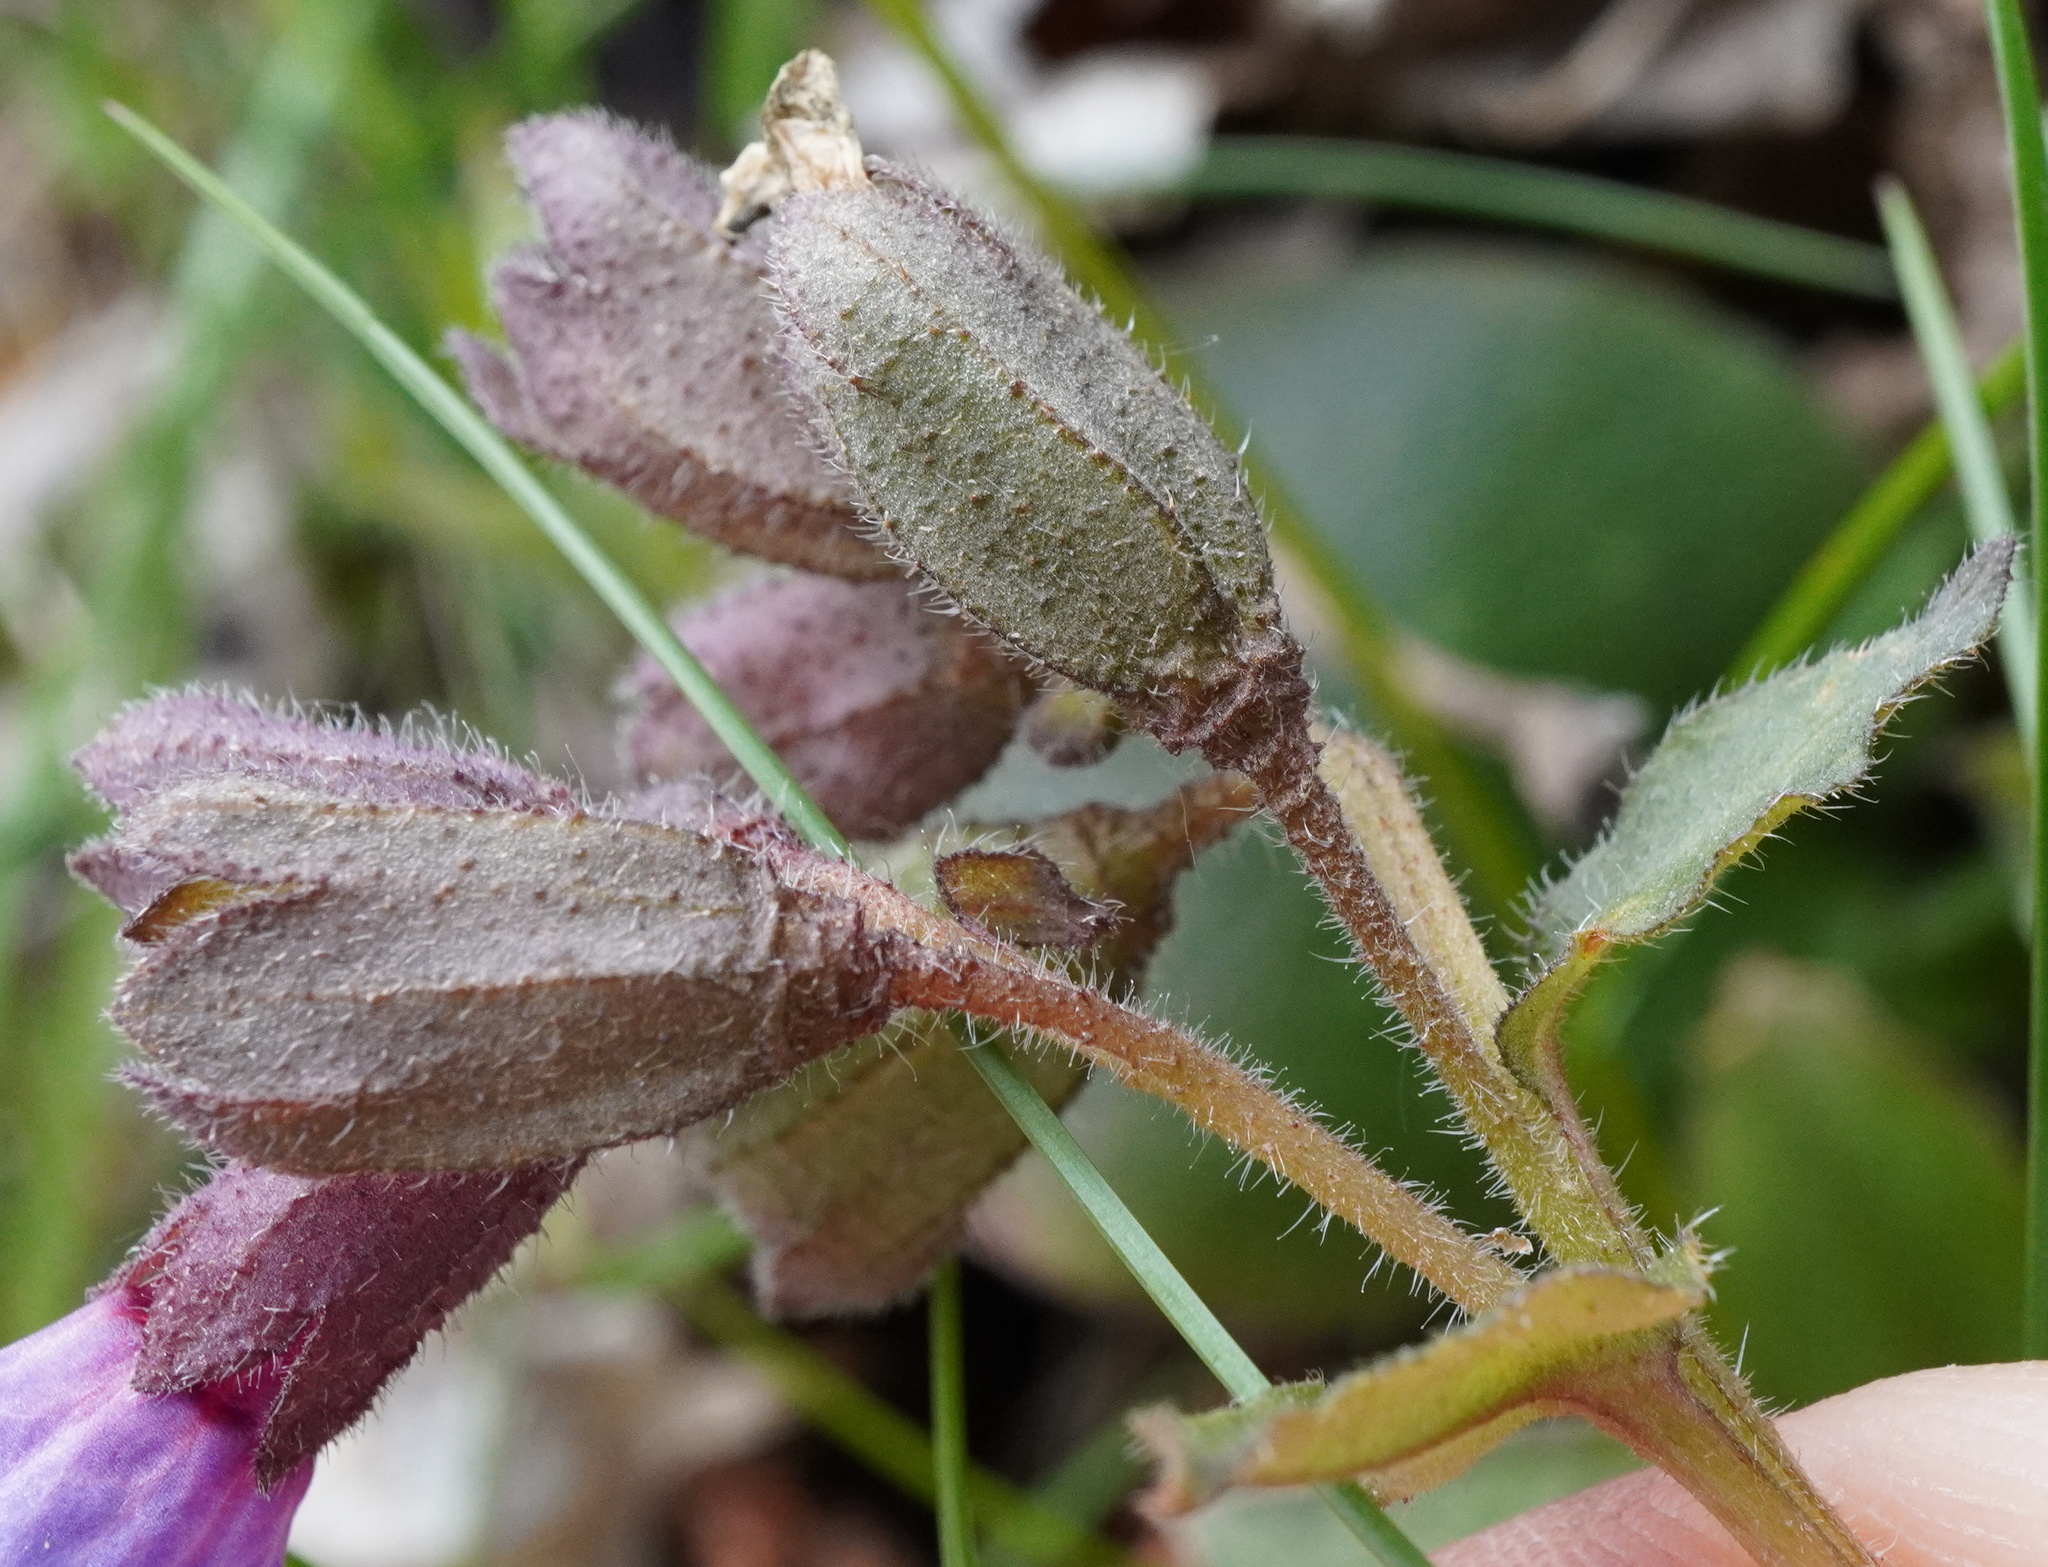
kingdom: Plantae
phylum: Tracheophyta
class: Magnoliopsida
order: Boraginales
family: Boraginaceae
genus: Pulmonaria
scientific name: Pulmonaria officinalis
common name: Lungwort
